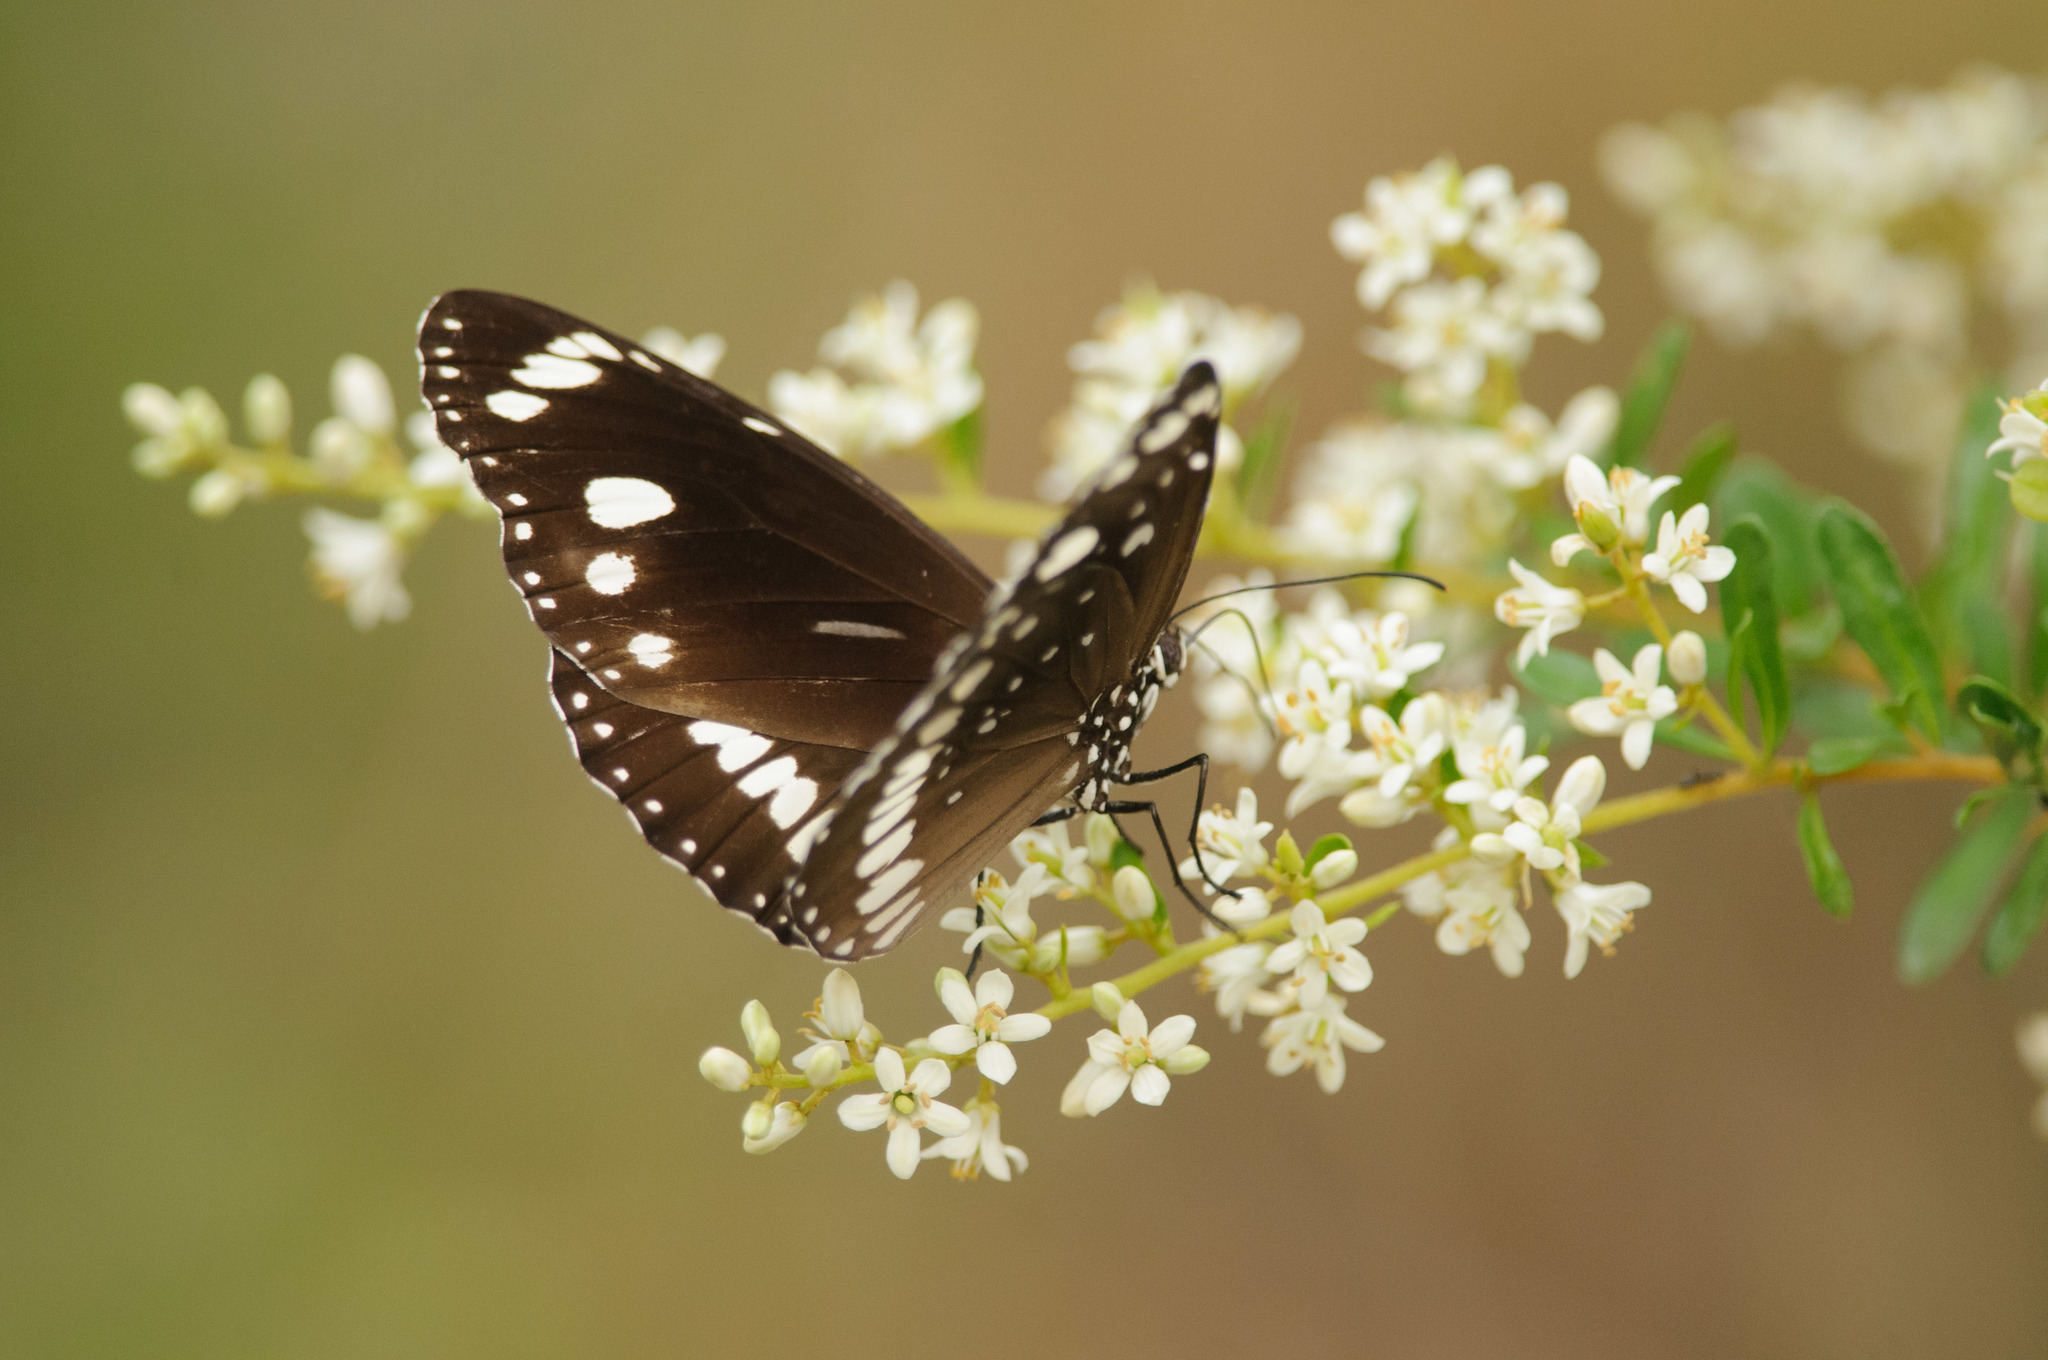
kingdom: Animalia
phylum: Arthropoda
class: Insecta
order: Lepidoptera
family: Nymphalidae
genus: Euploea
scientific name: Euploea core
